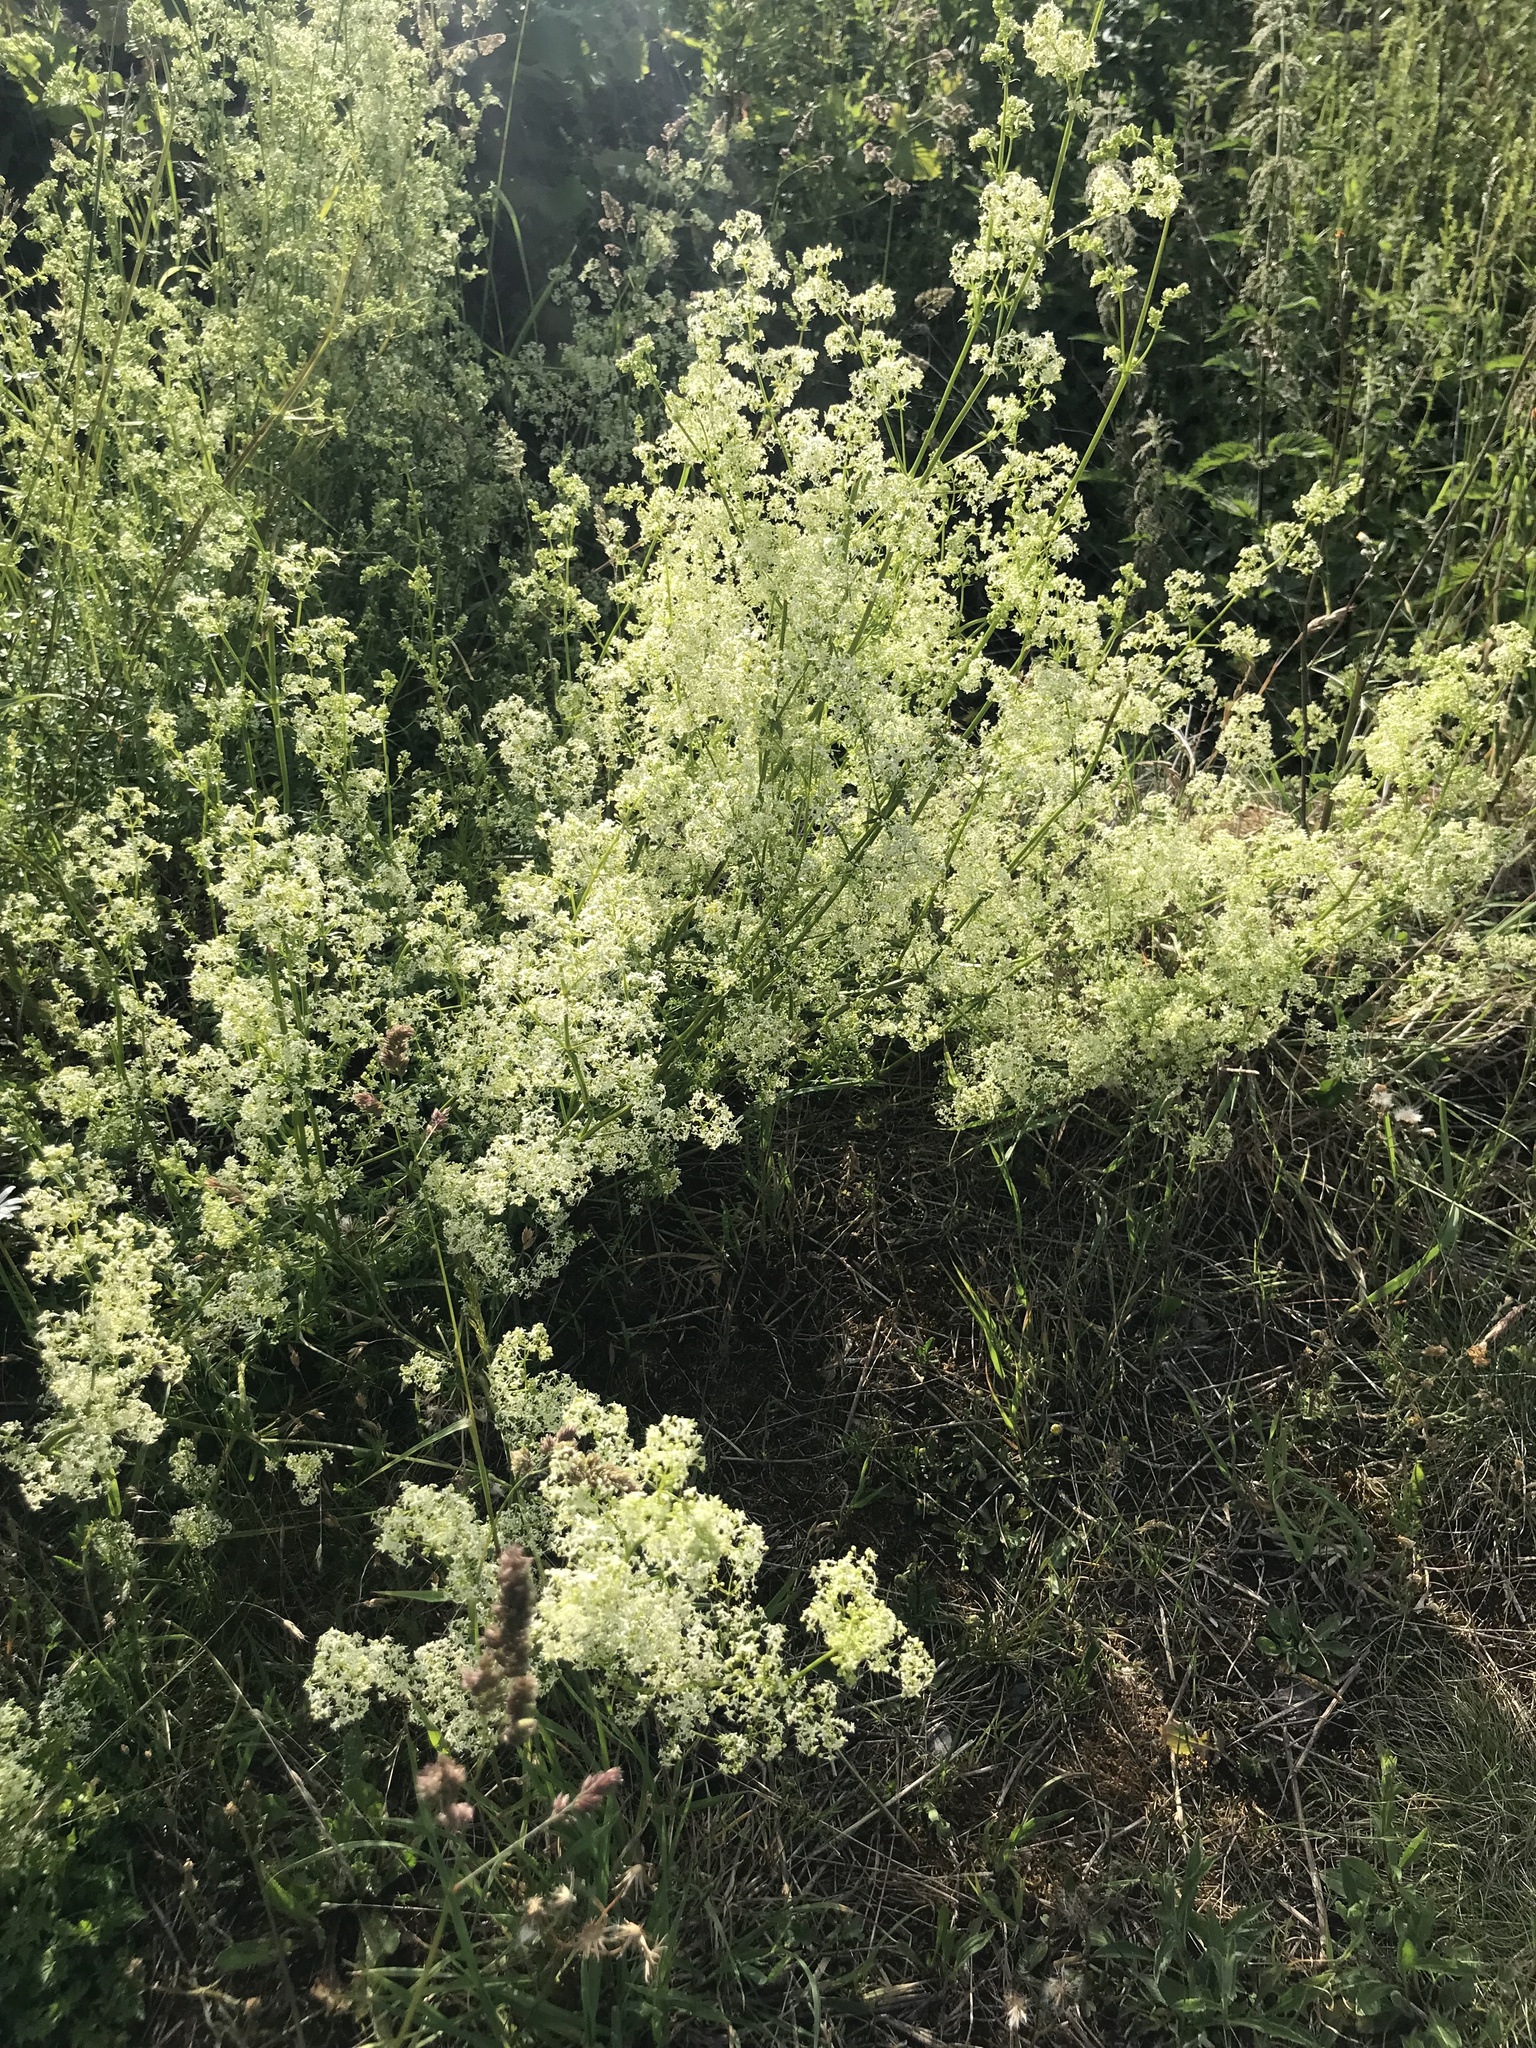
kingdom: Plantae
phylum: Tracheophyta
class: Magnoliopsida
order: Gentianales
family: Rubiaceae
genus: Galium
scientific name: Galium album
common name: White bedstraw
